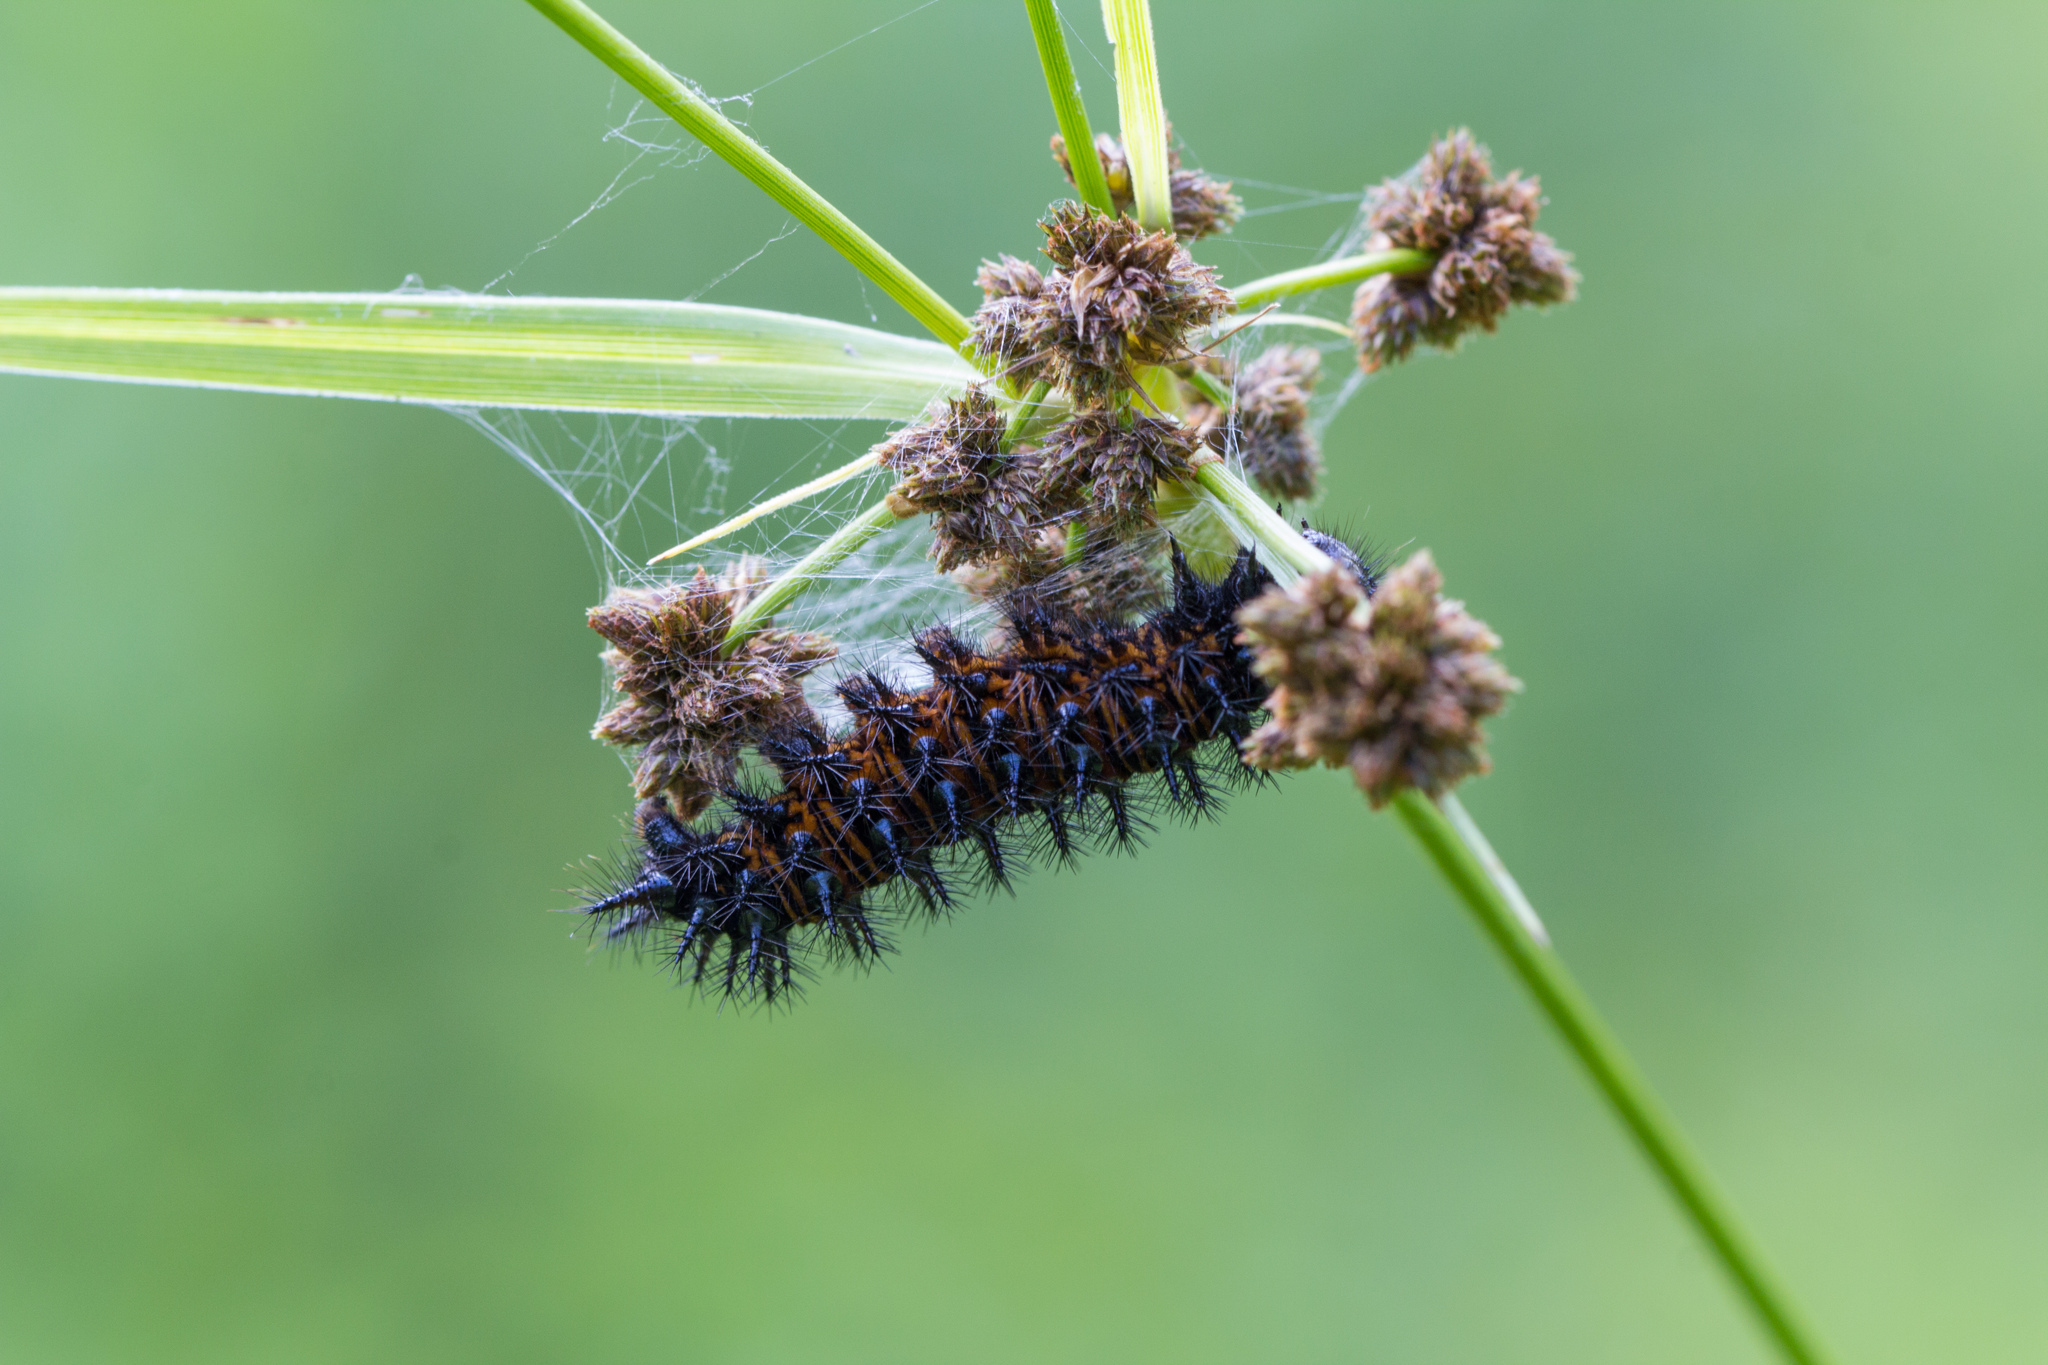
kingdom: Animalia
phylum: Arthropoda
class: Insecta
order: Lepidoptera
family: Nymphalidae
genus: Euphydryas
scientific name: Euphydryas phaeton
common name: Baltimore checkerspot
